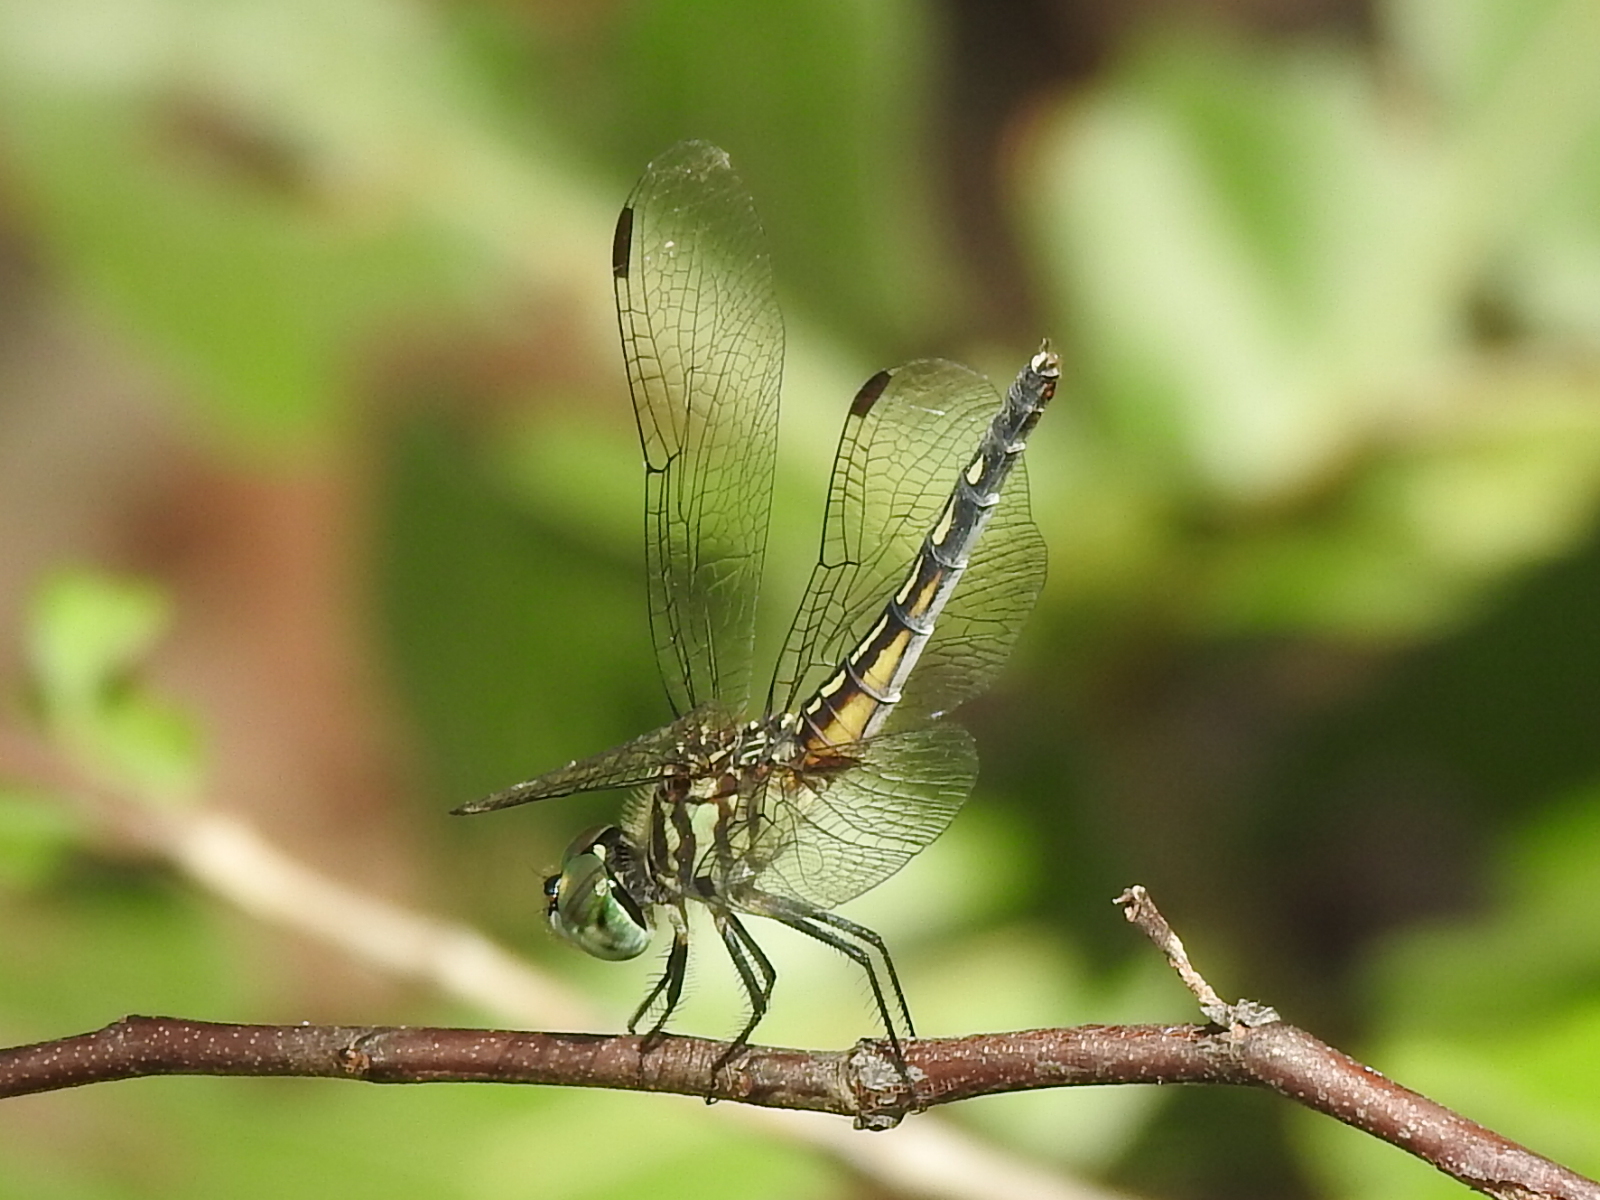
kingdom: Animalia
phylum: Arthropoda
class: Insecta
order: Odonata
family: Libellulidae
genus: Pachydiplax
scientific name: Pachydiplax longipennis
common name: Blue dasher
